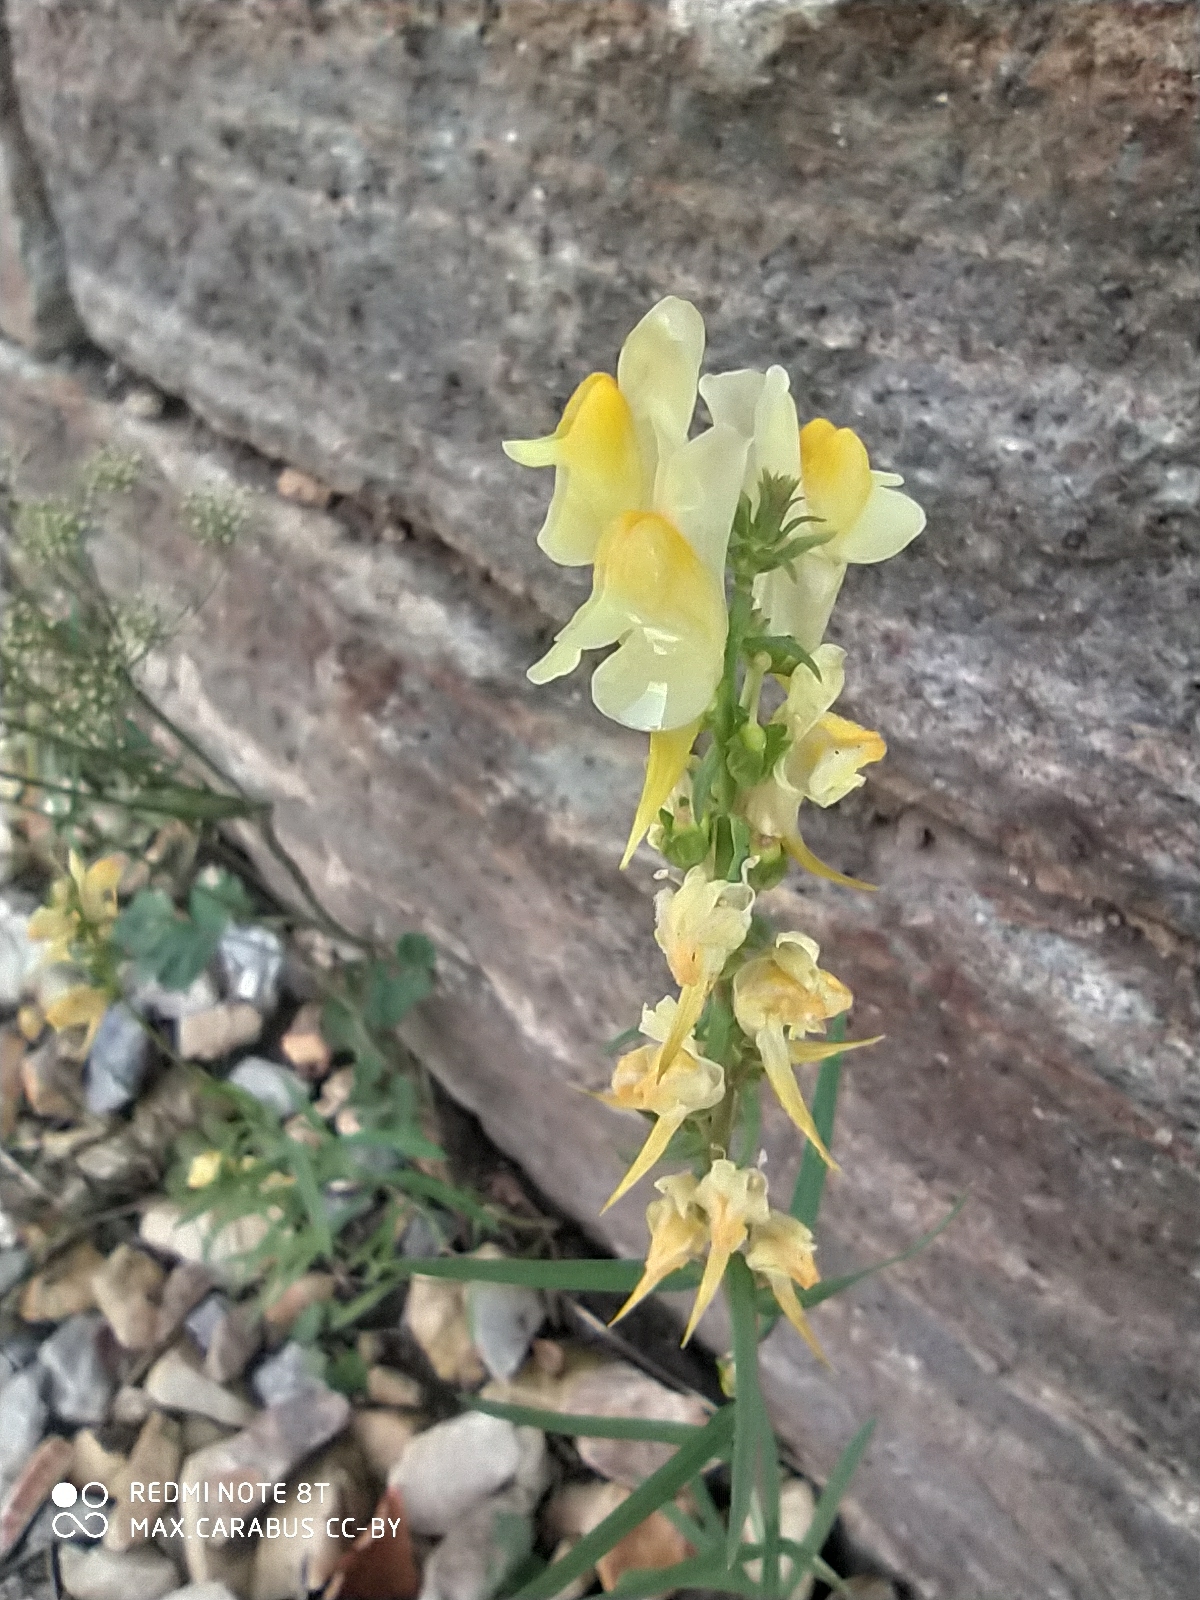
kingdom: Plantae
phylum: Tracheophyta
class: Magnoliopsida
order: Lamiales
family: Plantaginaceae
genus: Linaria
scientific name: Linaria vulgaris
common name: Butter and eggs
